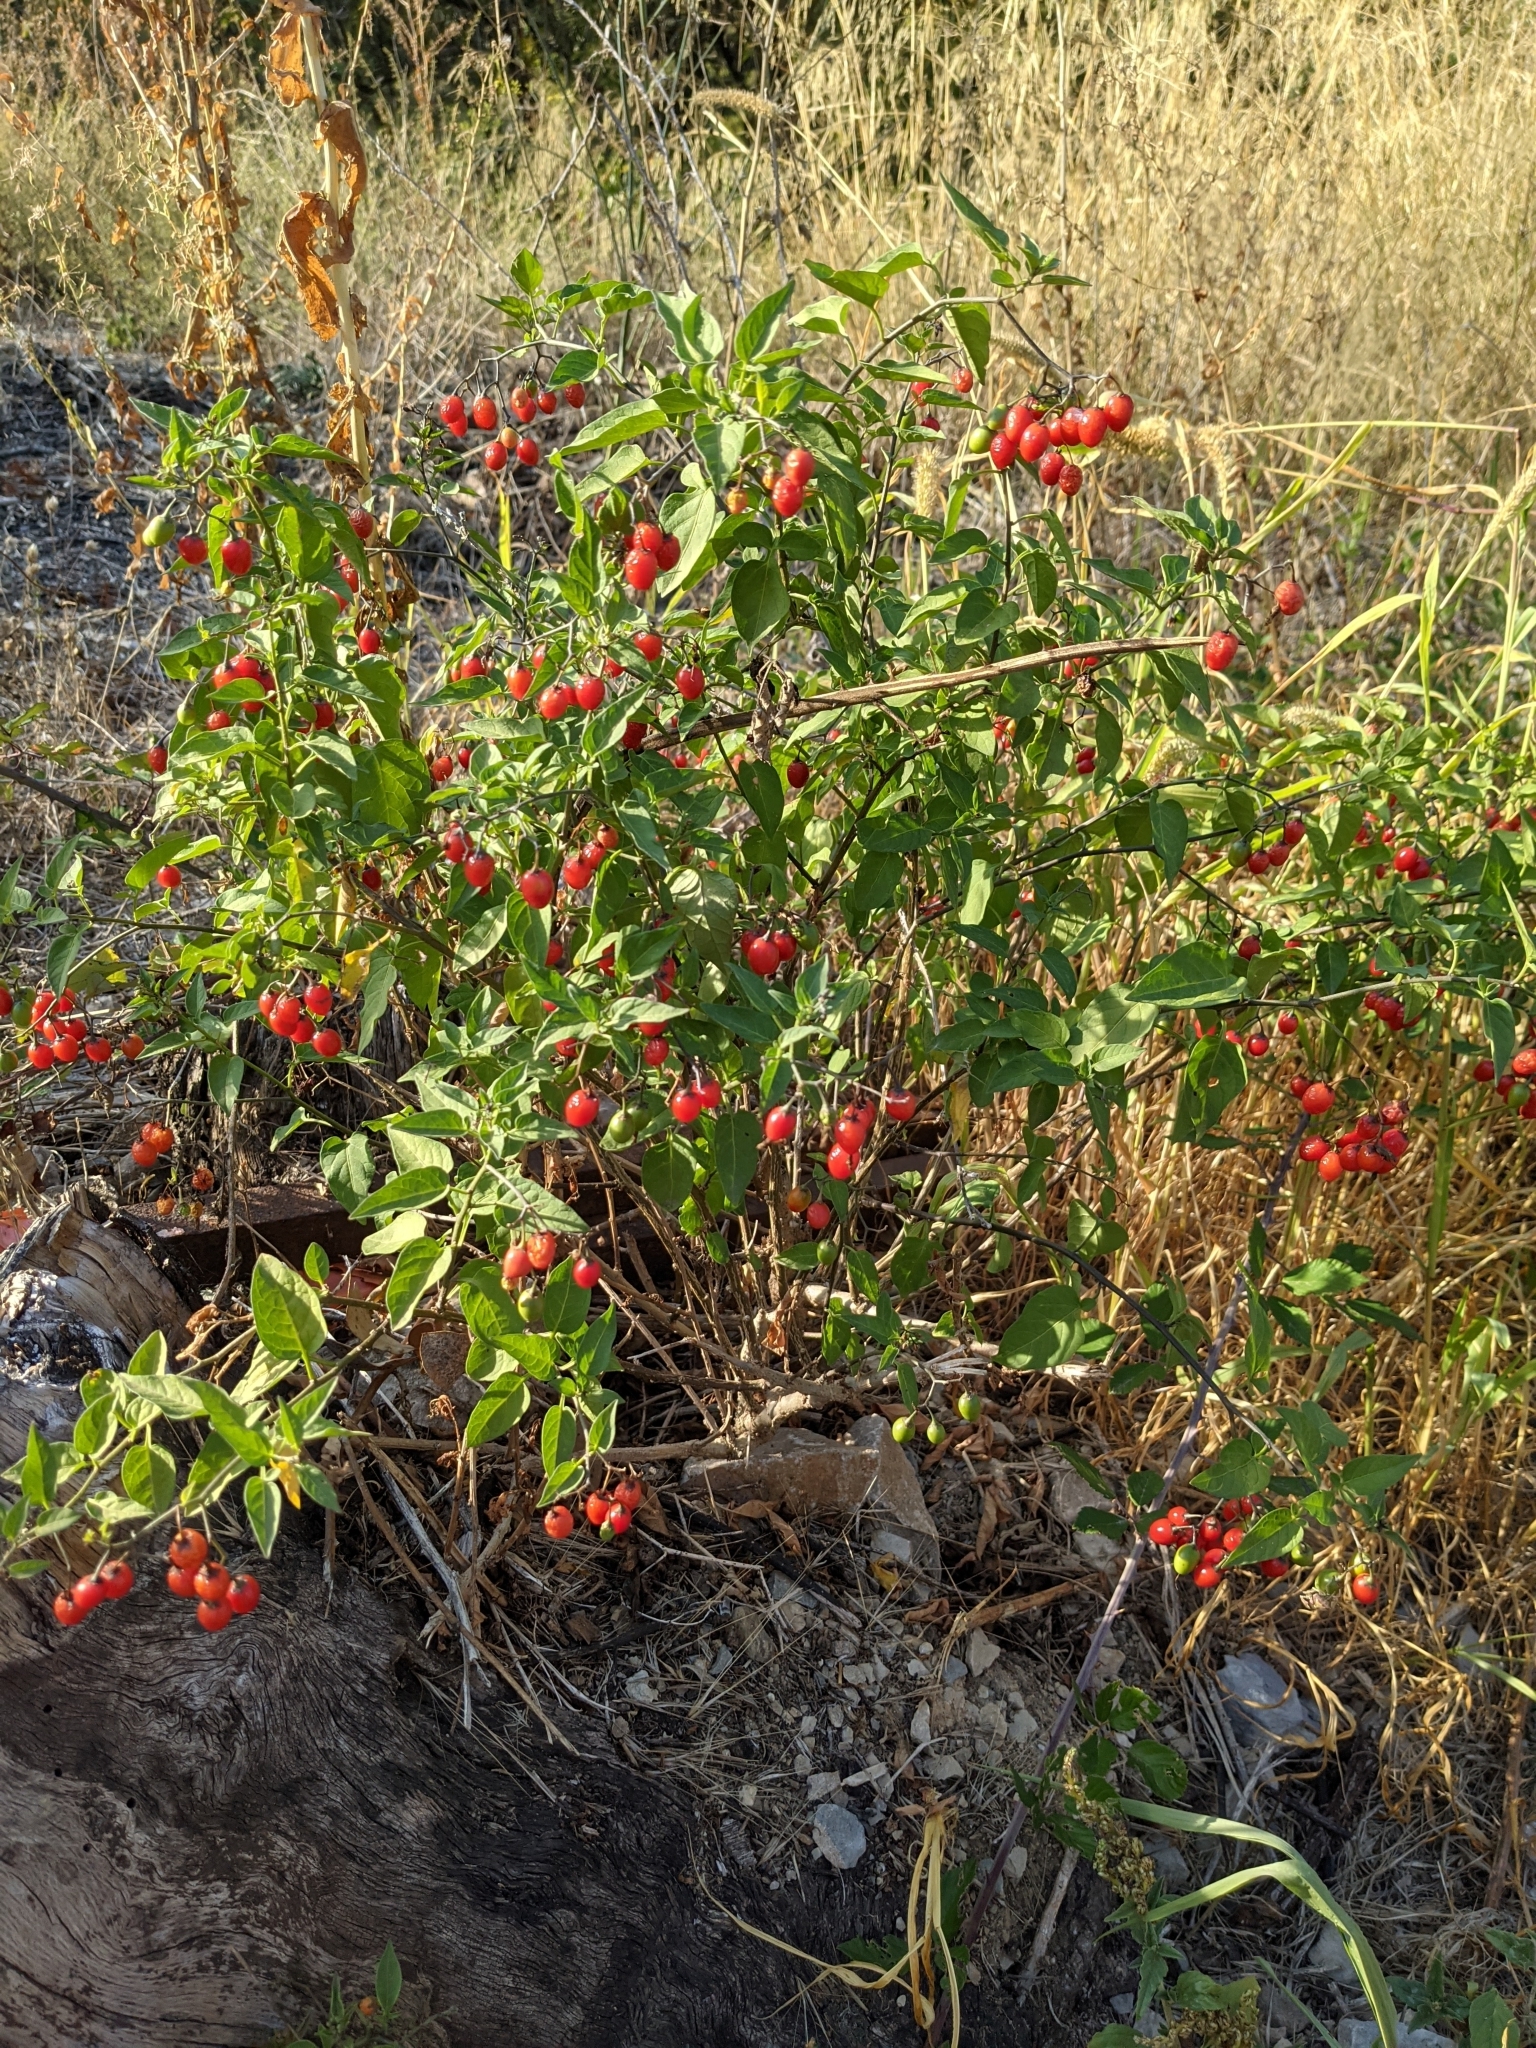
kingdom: Plantae
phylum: Tracheophyta
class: Magnoliopsida
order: Solanales
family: Solanaceae
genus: Solanum
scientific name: Solanum dulcamara
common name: Climbing nightshade
